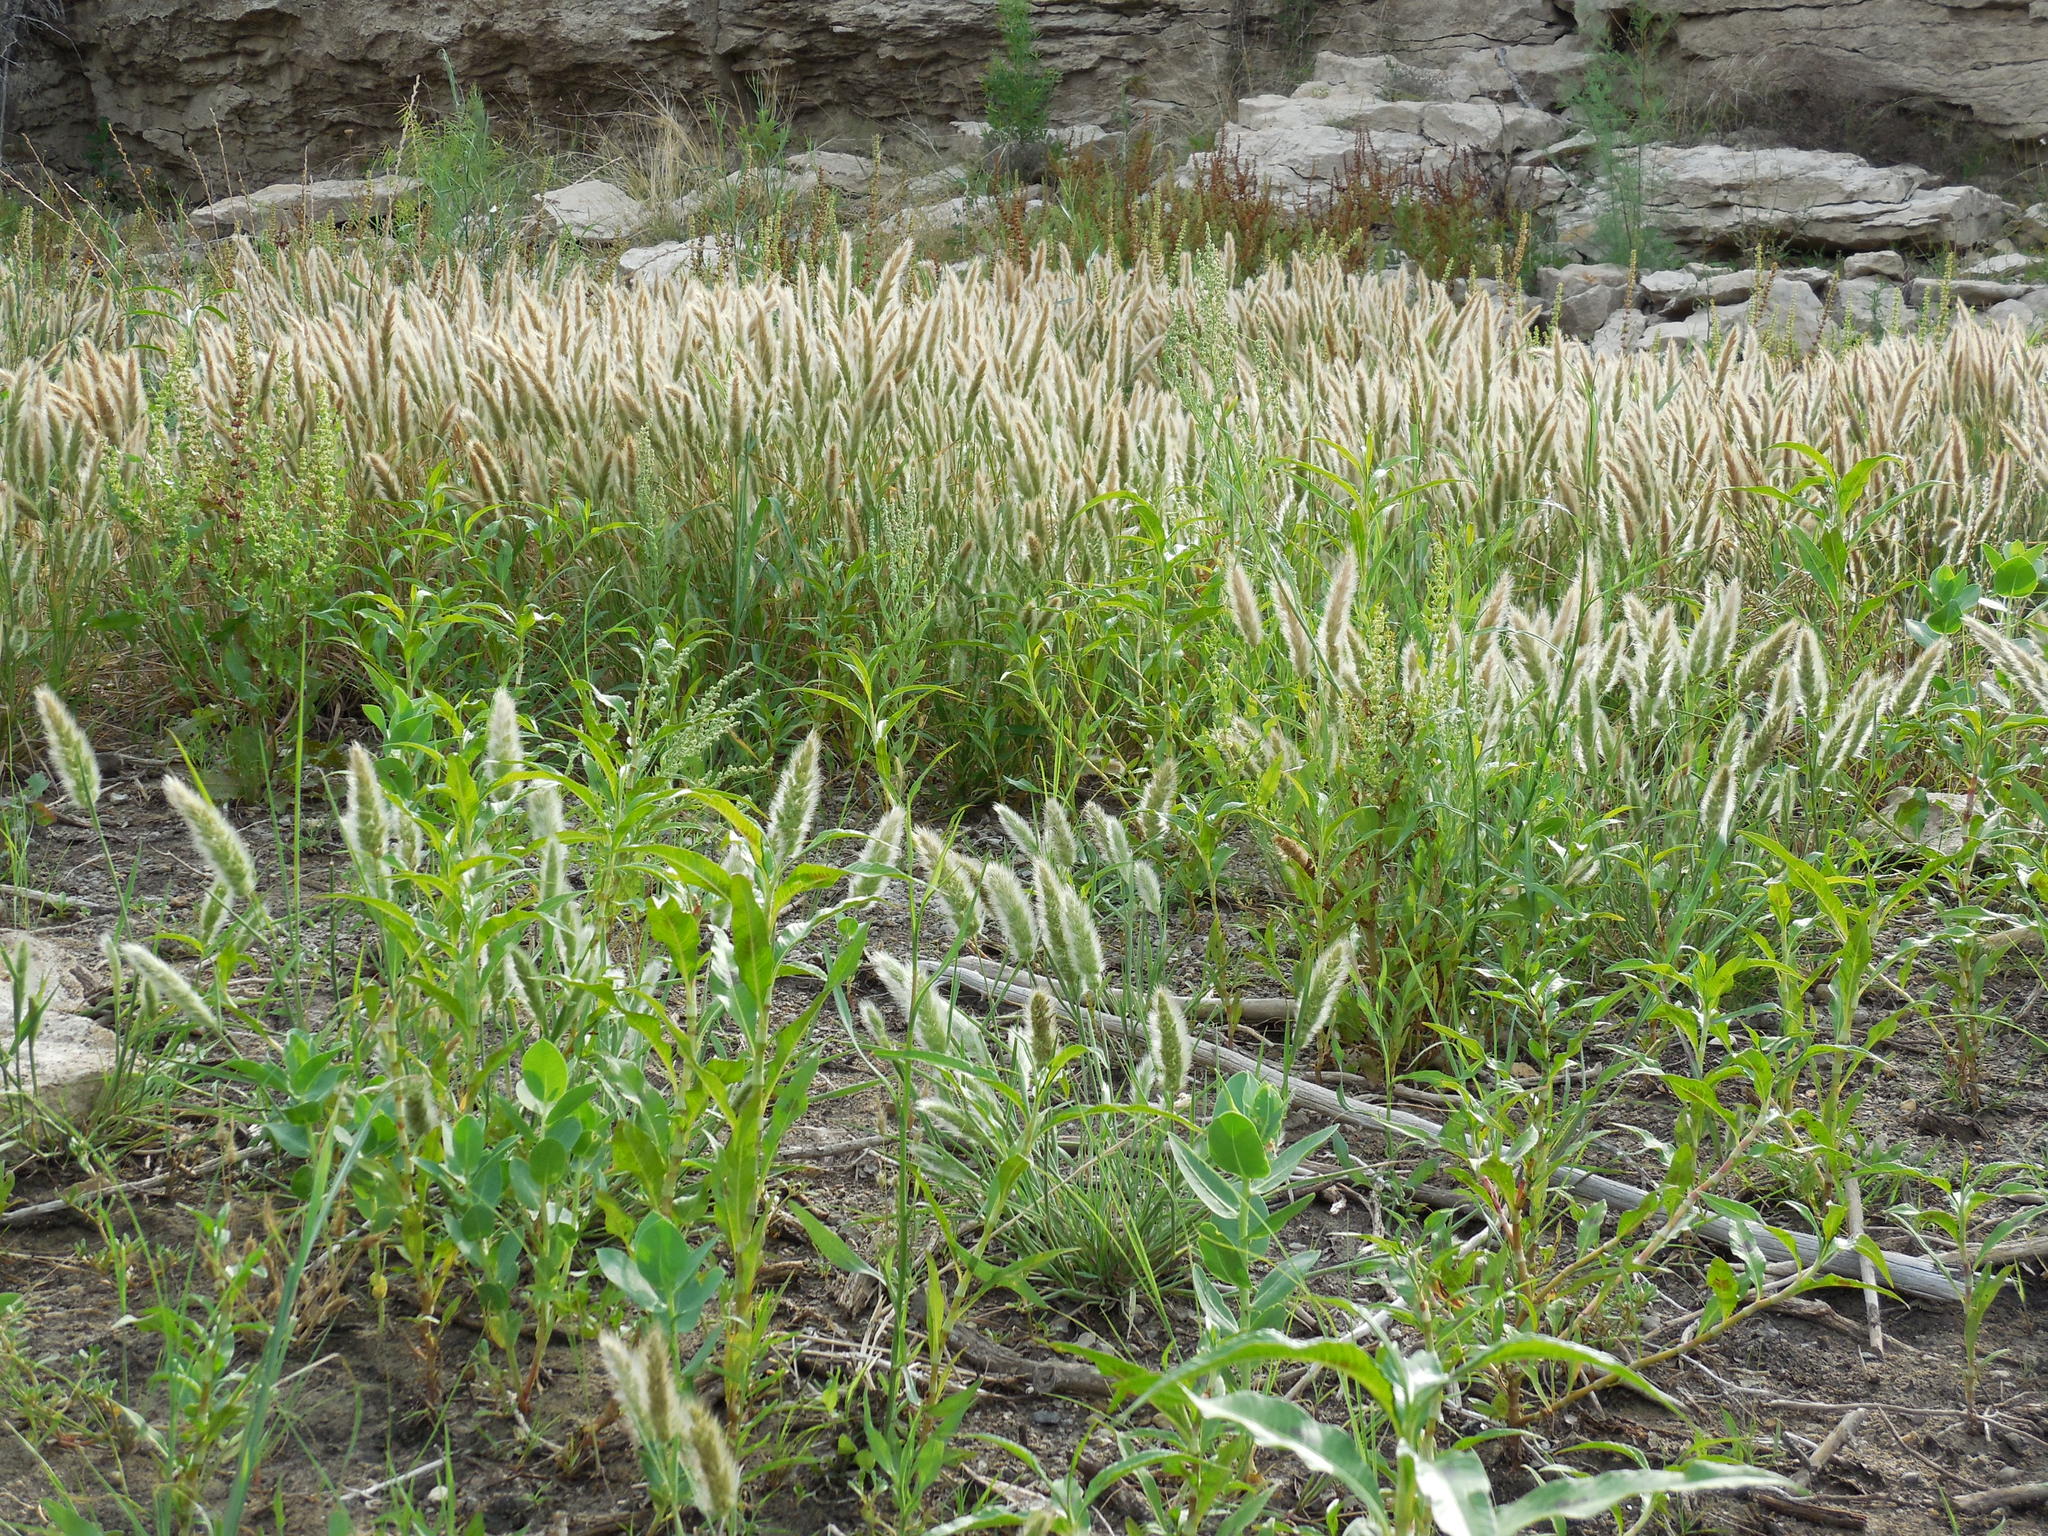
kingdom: Plantae
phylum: Tracheophyta
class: Liliopsida
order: Poales
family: Poaceae
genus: Polypogon
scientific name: Polypogon monspeliensis
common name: Annual rabbitsfoot grass
